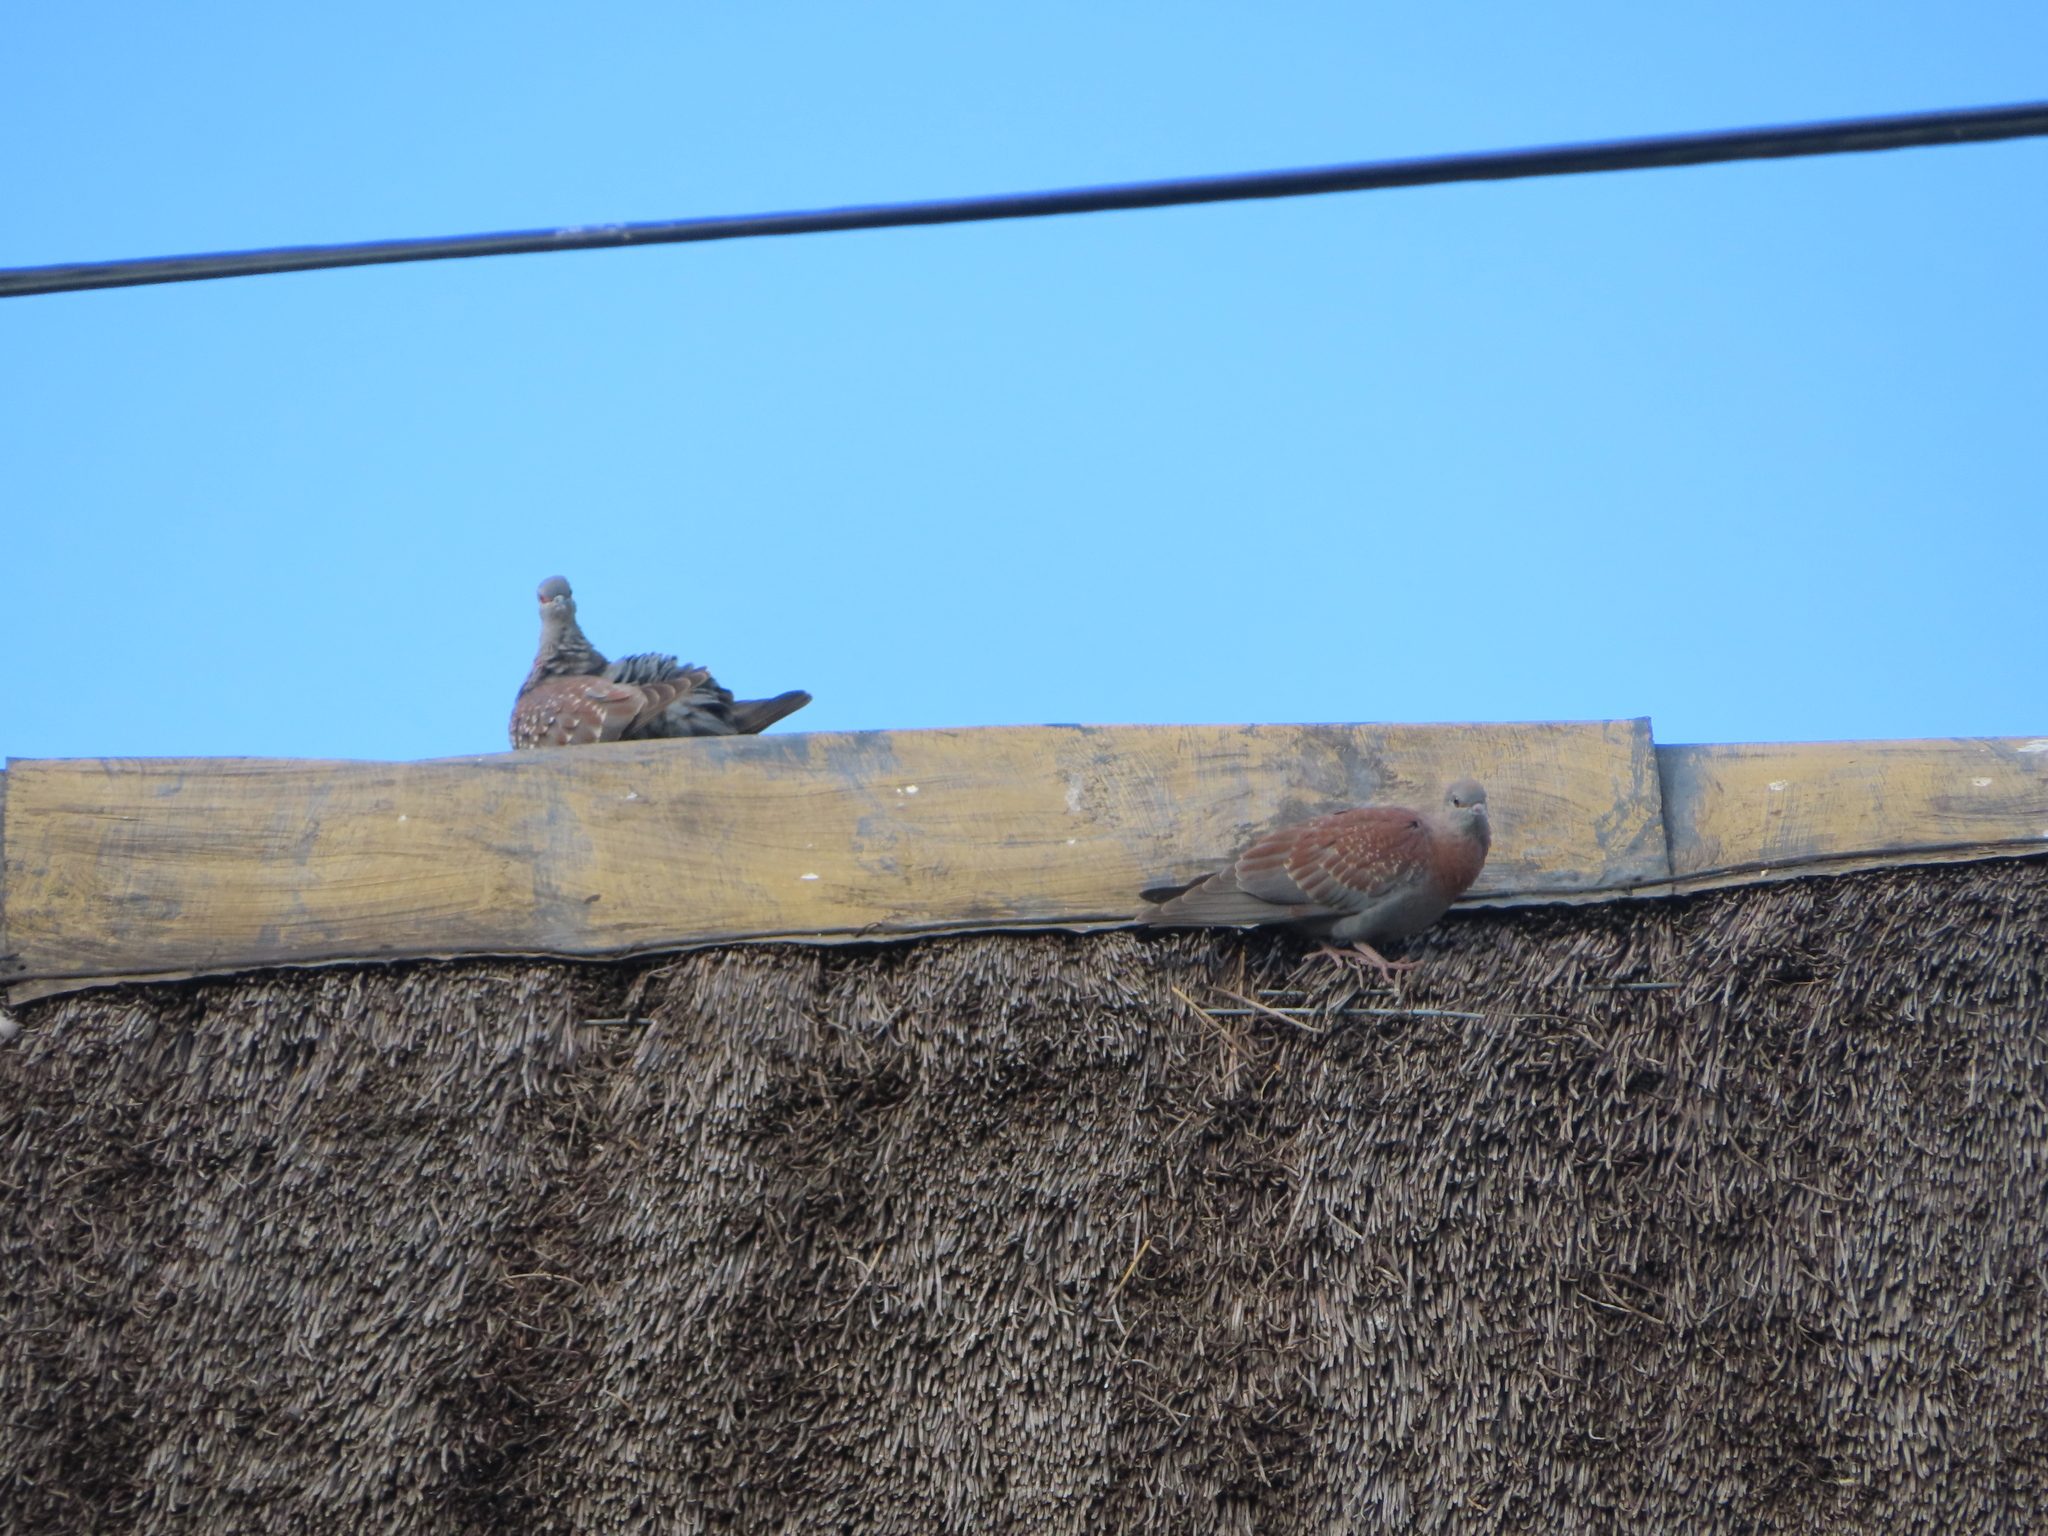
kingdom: Animalia
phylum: Chordata
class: Aves
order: Columbiformes
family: Columbidae
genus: Columba
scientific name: Columba guinea
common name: Speckled pigeon
